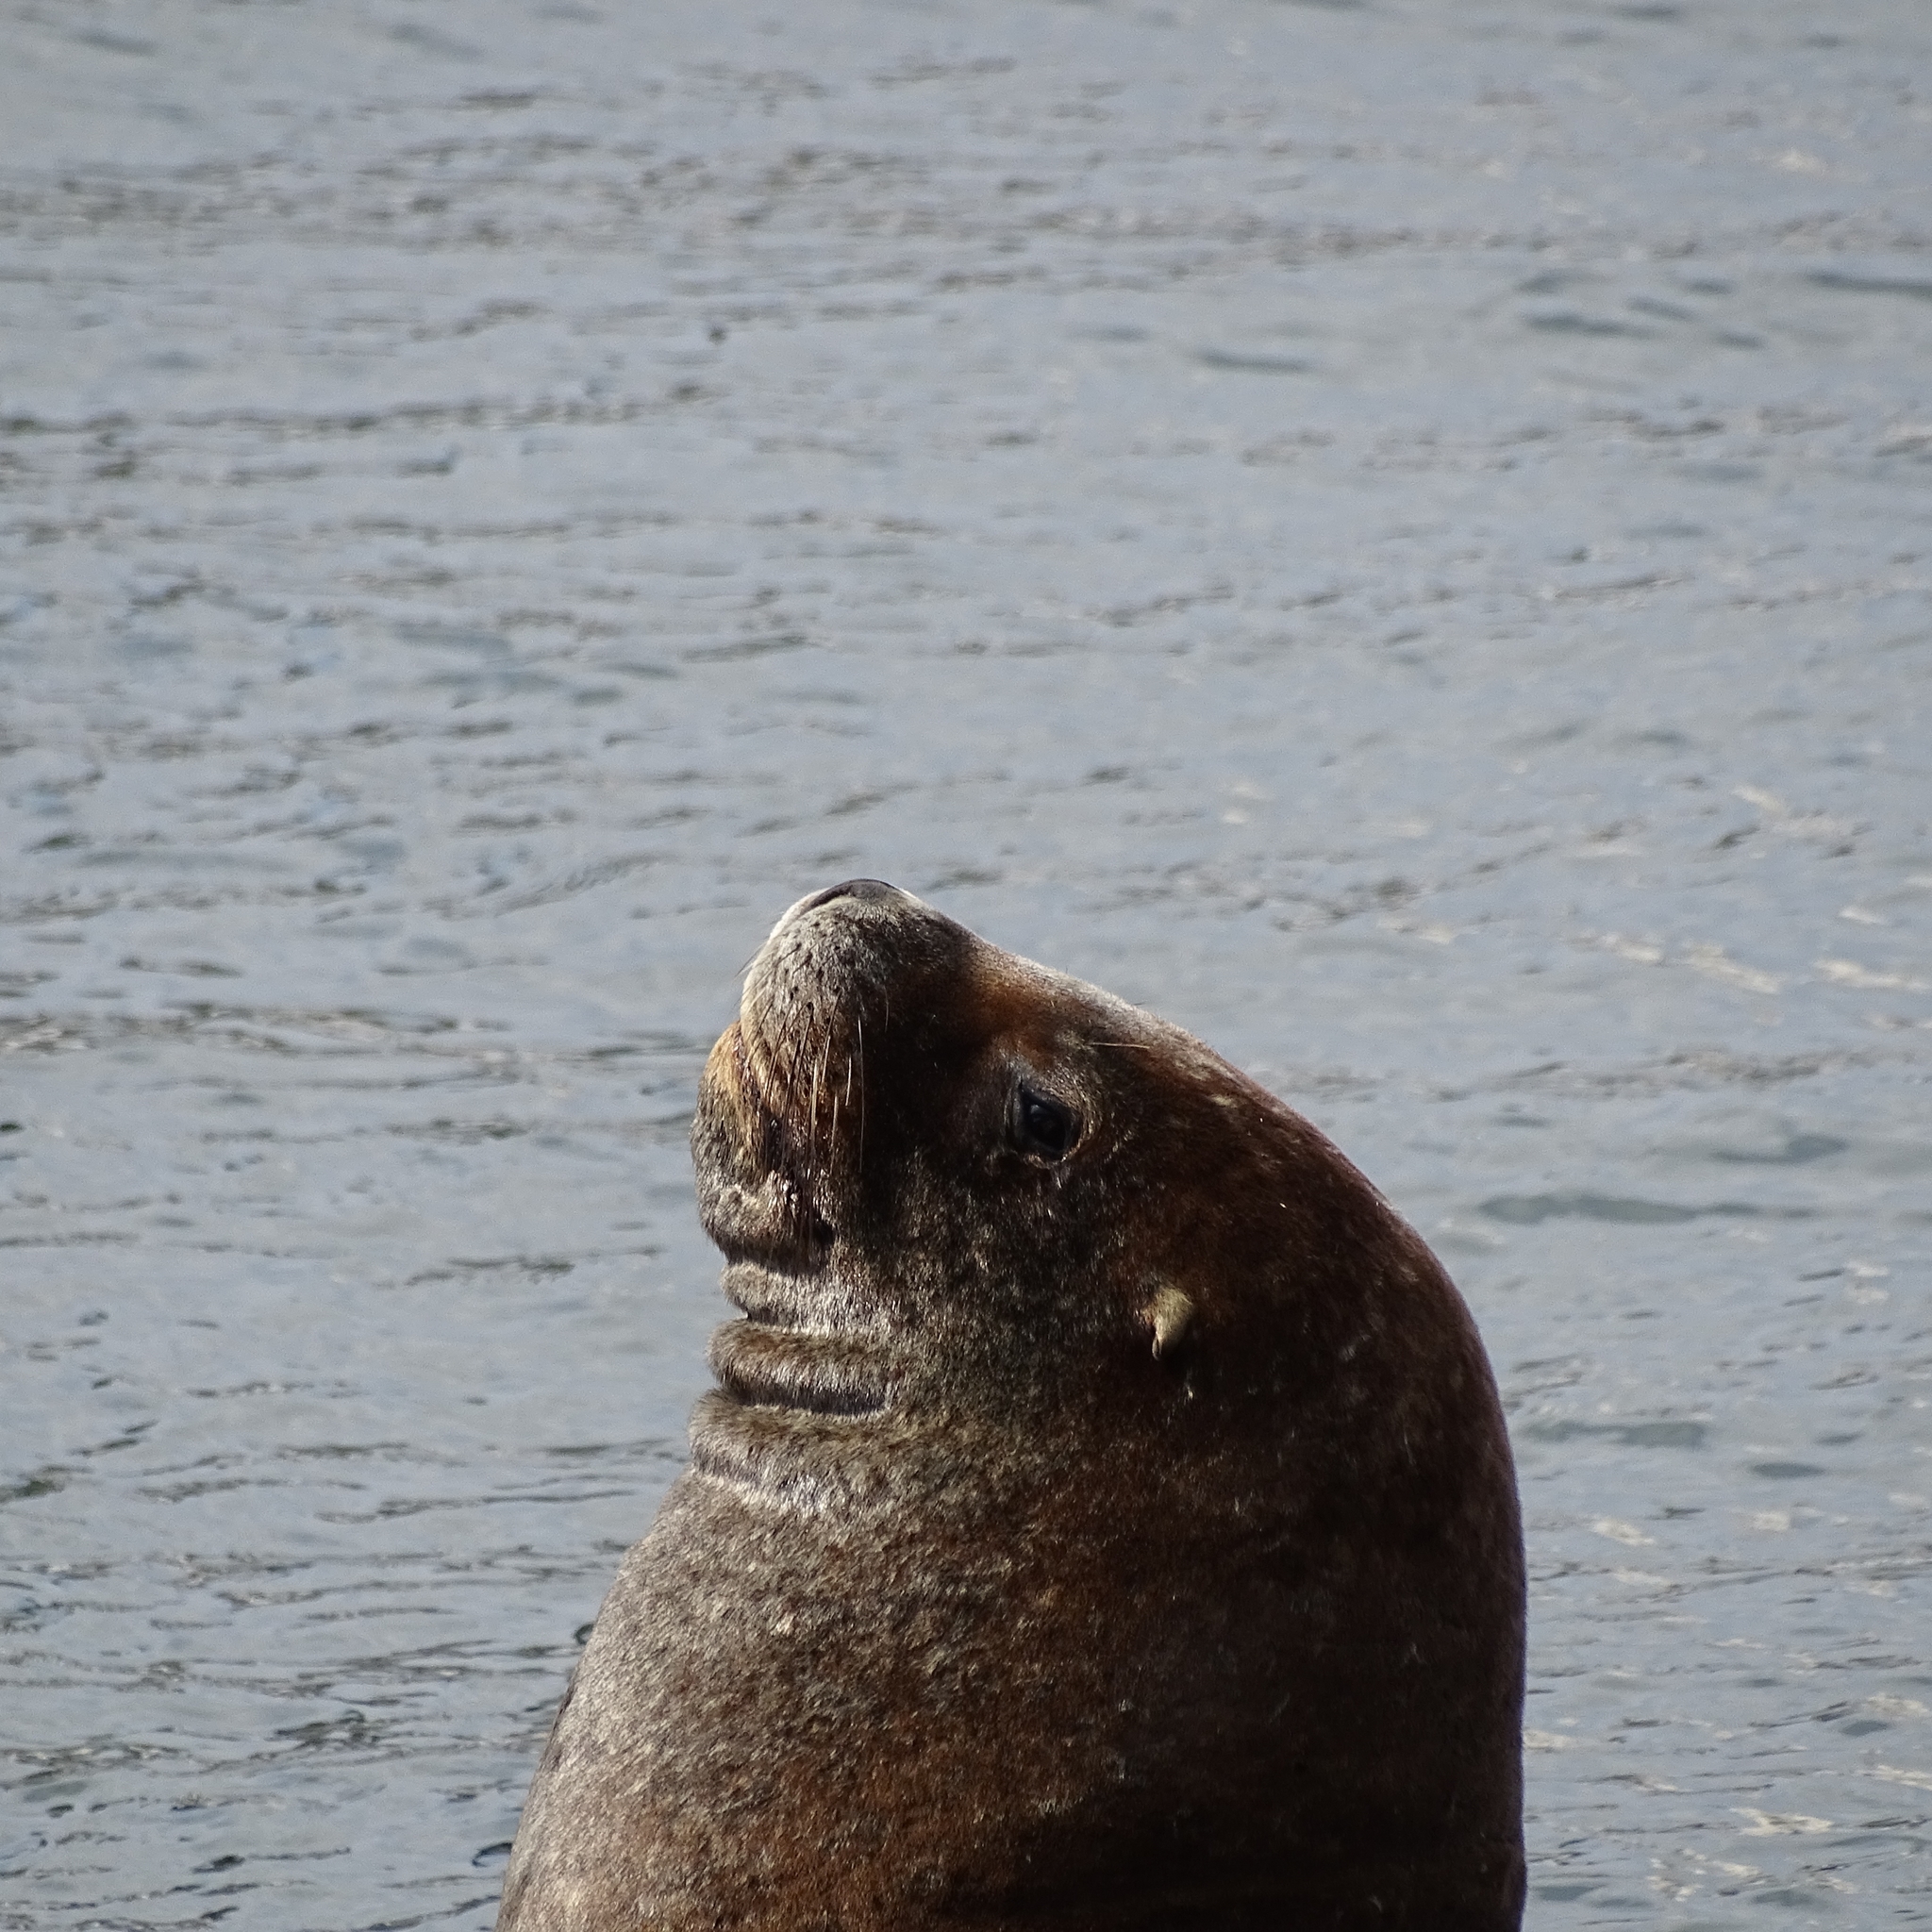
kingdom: Animalia
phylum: Chordata
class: Mammalia
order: Carnivora
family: Otariidae
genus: Otaria
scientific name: Otaria byronia
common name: South american sea lion
